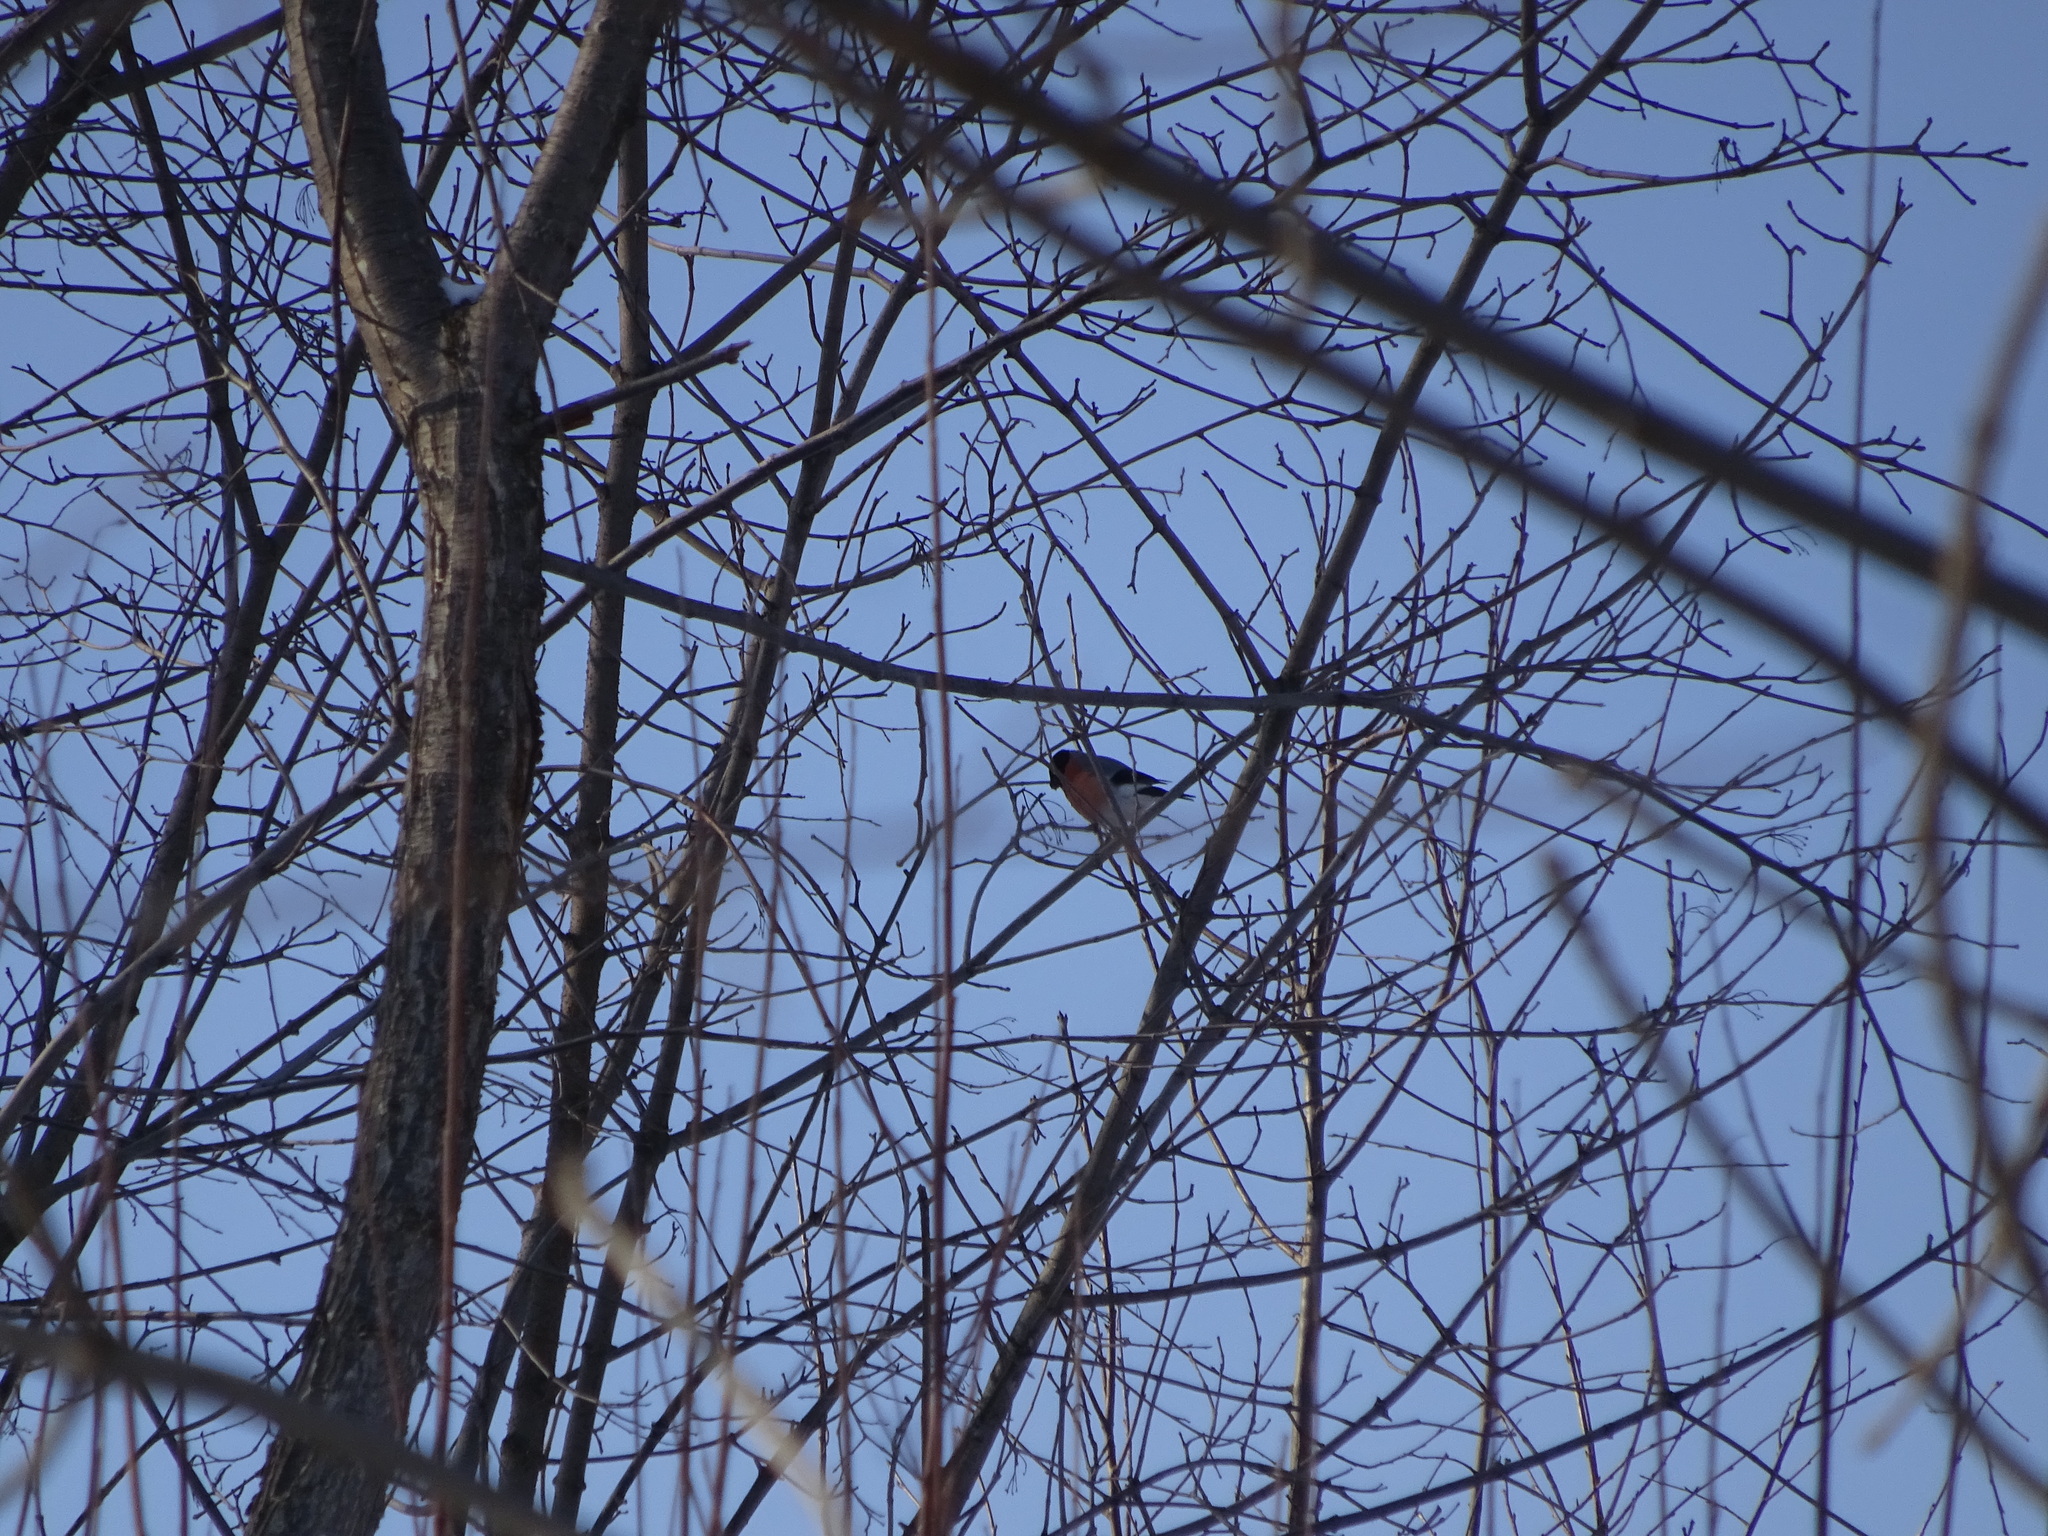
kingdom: Animalia
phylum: Chordata
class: Aves
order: Passeriformes
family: Fringillidae
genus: Pyrrhula
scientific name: Pyrrhula pyrrhula
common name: Eurasian bullfinch
